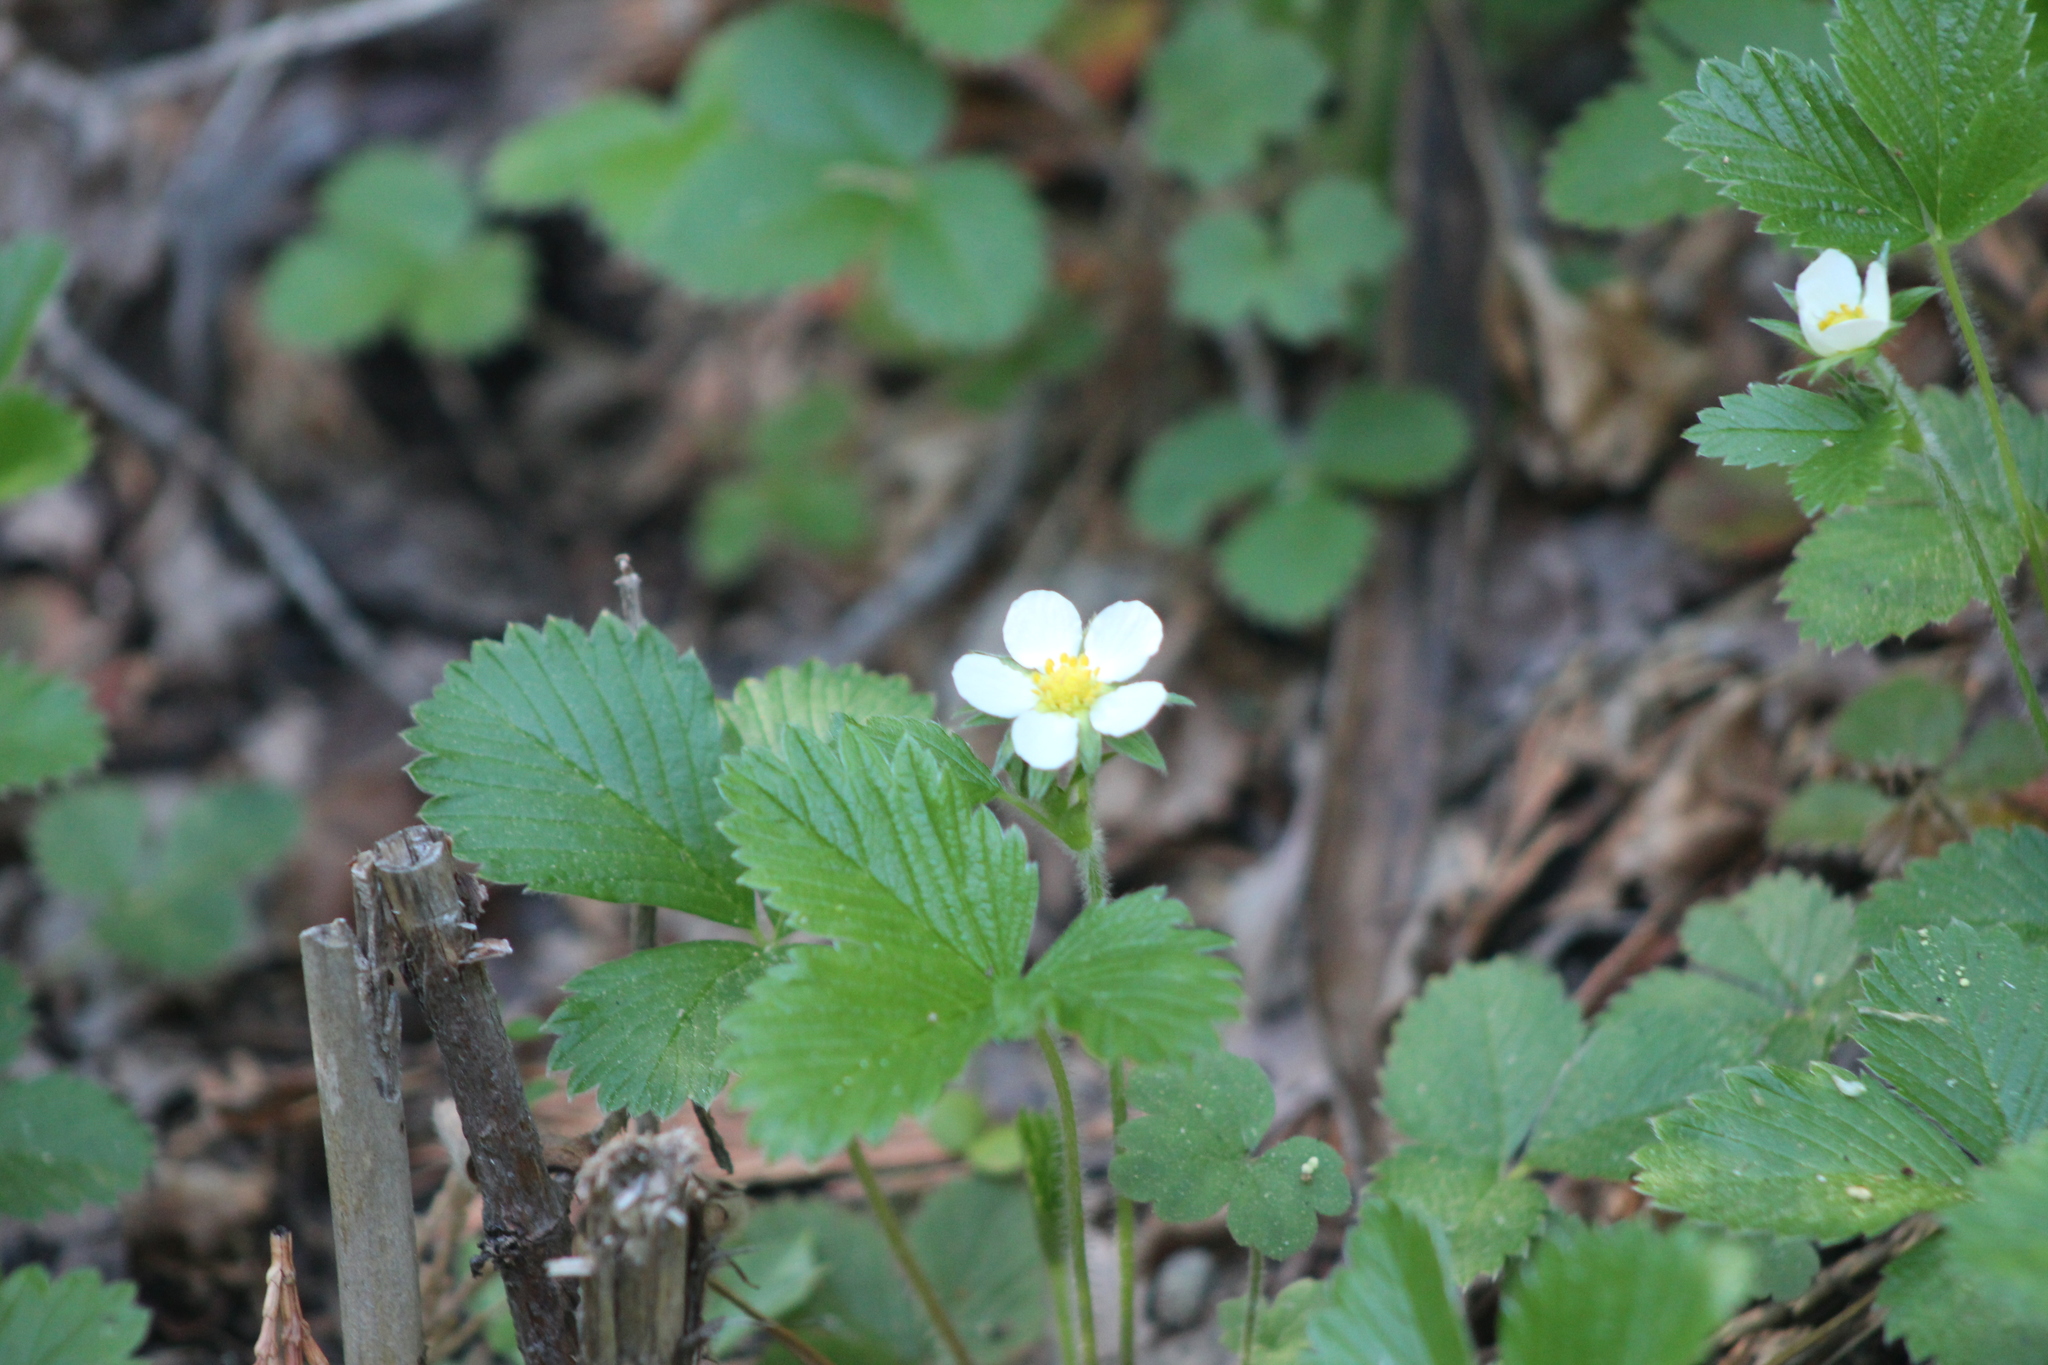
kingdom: Plantae
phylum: Tracheophyta
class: Magnoliopsida
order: Rosales
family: Rosaceae
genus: Fragaria
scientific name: Fragaria vesca
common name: Wild strawberry
